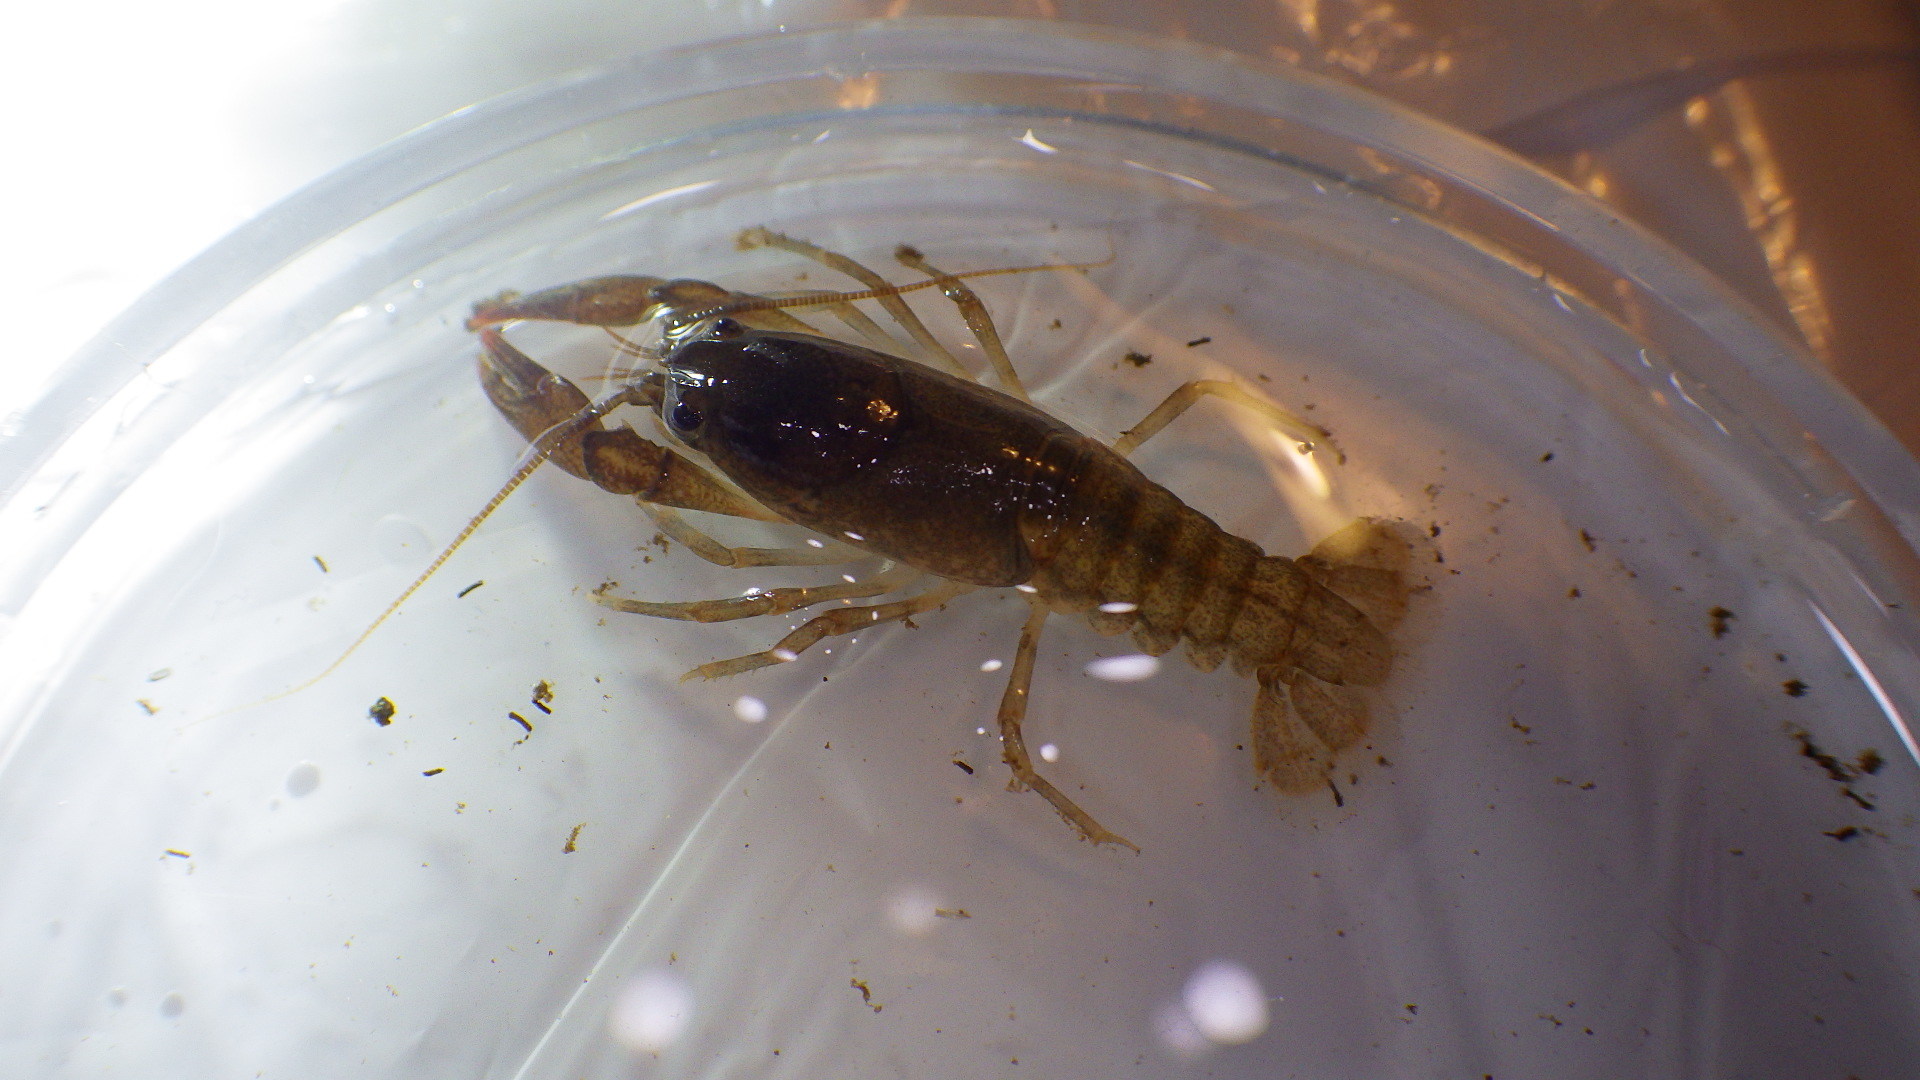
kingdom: Animalia
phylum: Arthropoda
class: Malacostraca
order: Decapoda
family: Cambaridae
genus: Cambarus
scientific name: Cambarus bartonii
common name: Appalachian brook crayfish
